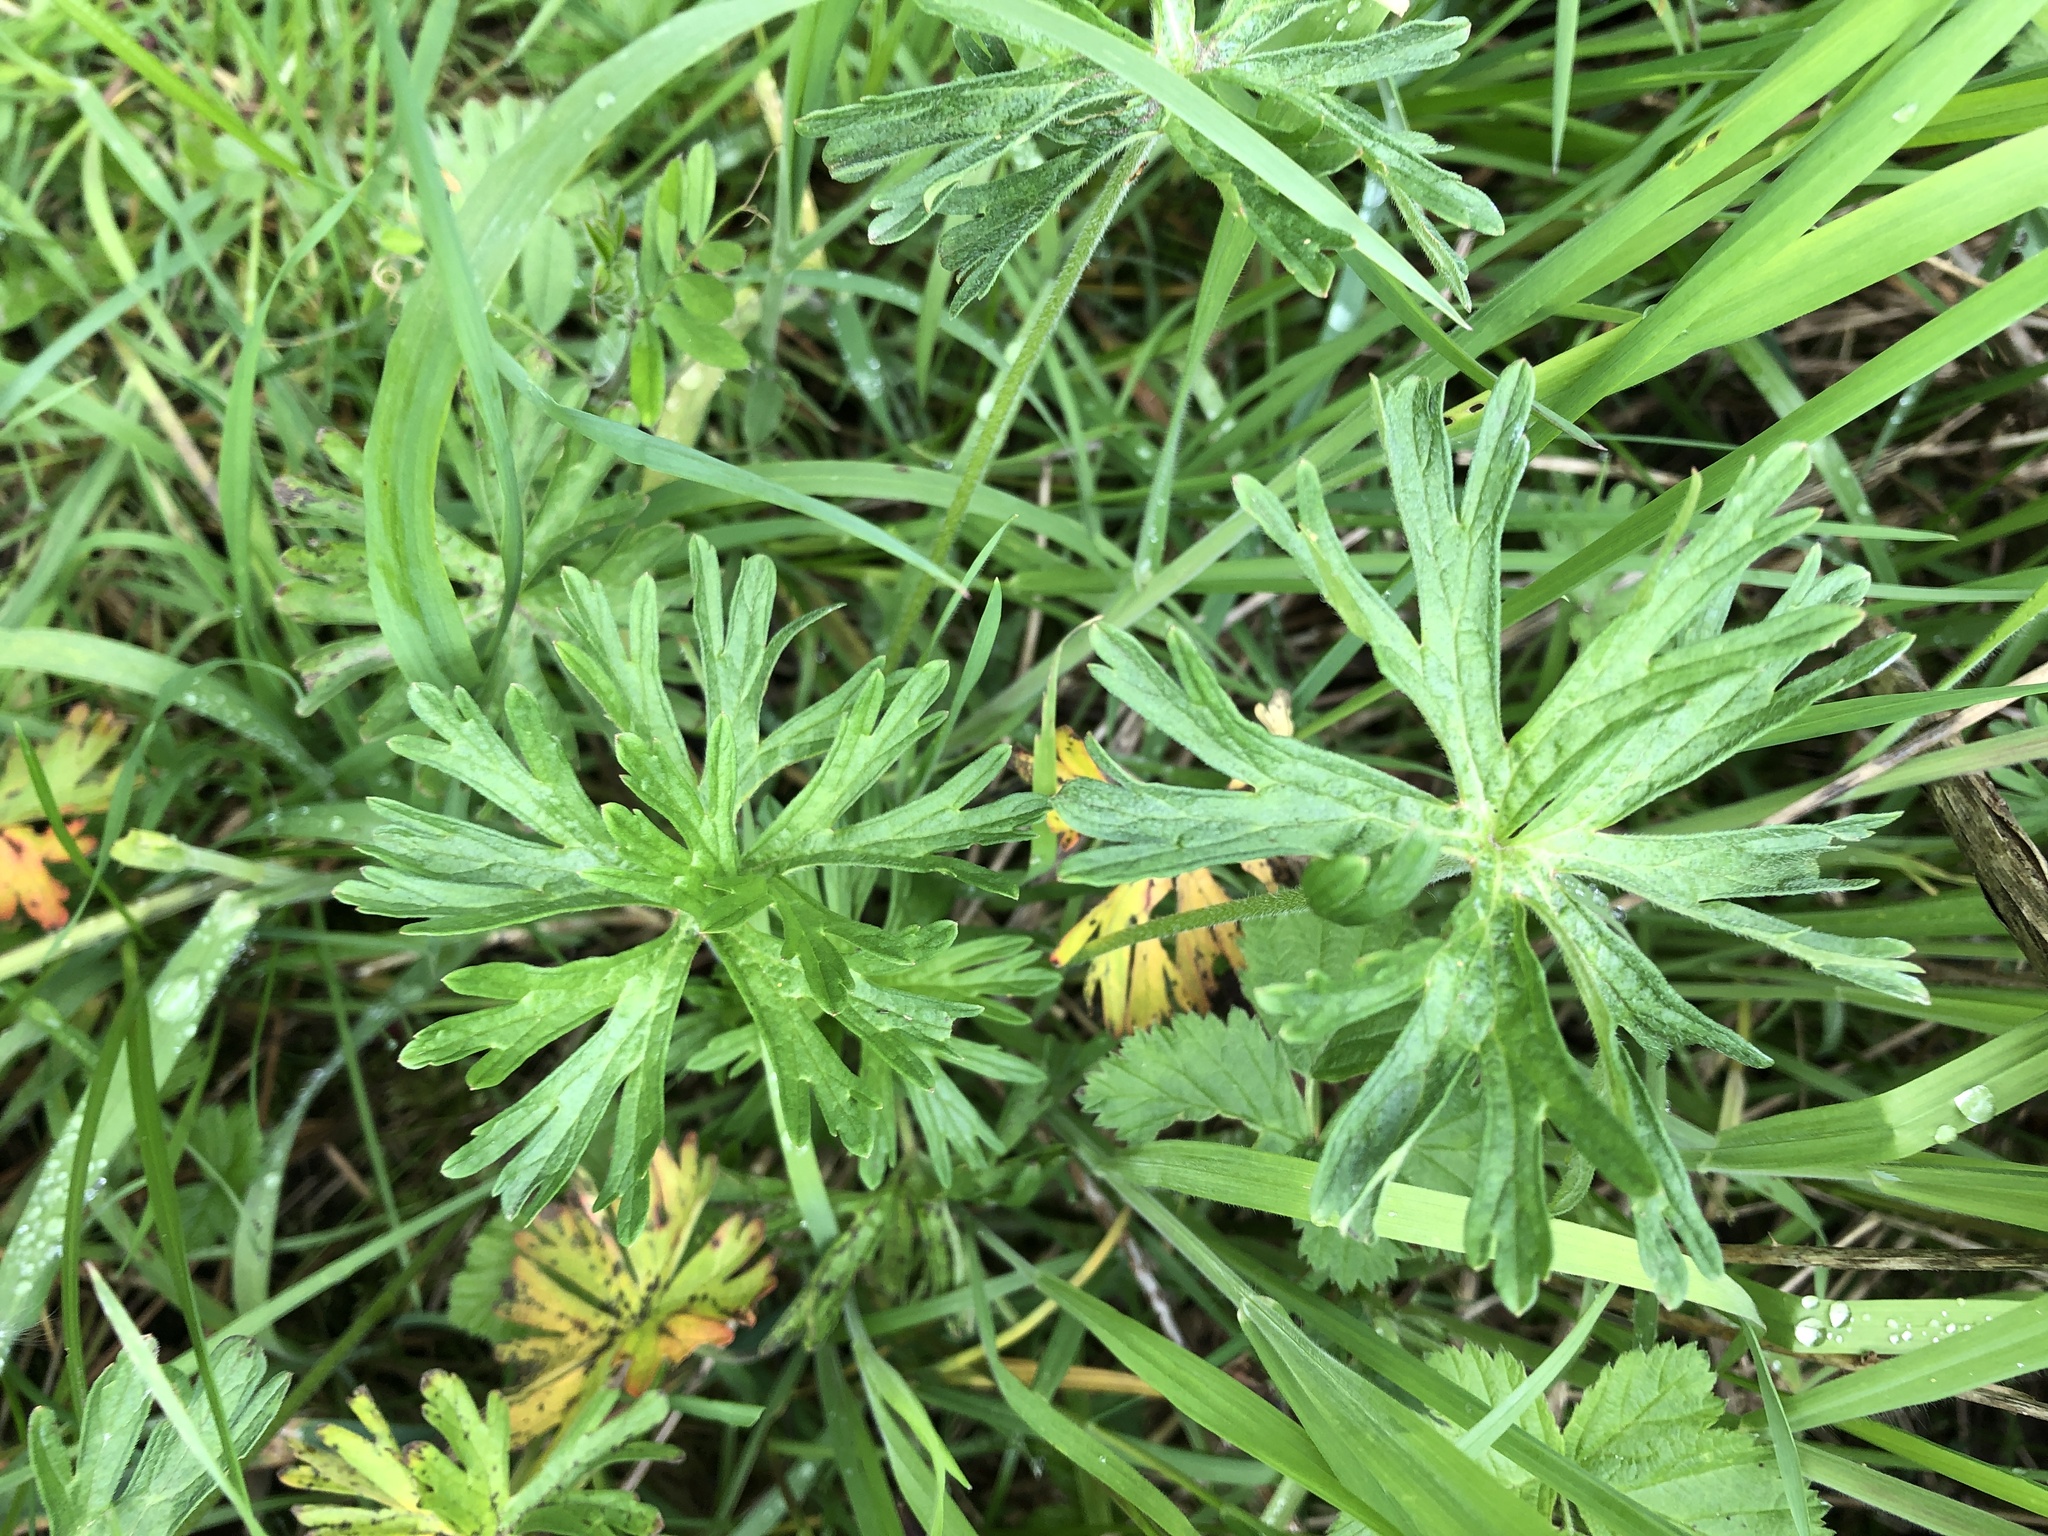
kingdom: Plantae
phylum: Tracheophyta
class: Magnoliopsida
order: Geraniales
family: Geraniaceae
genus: Geranium
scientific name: Geranium dissectum
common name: Cut-leaved crane's-bill
